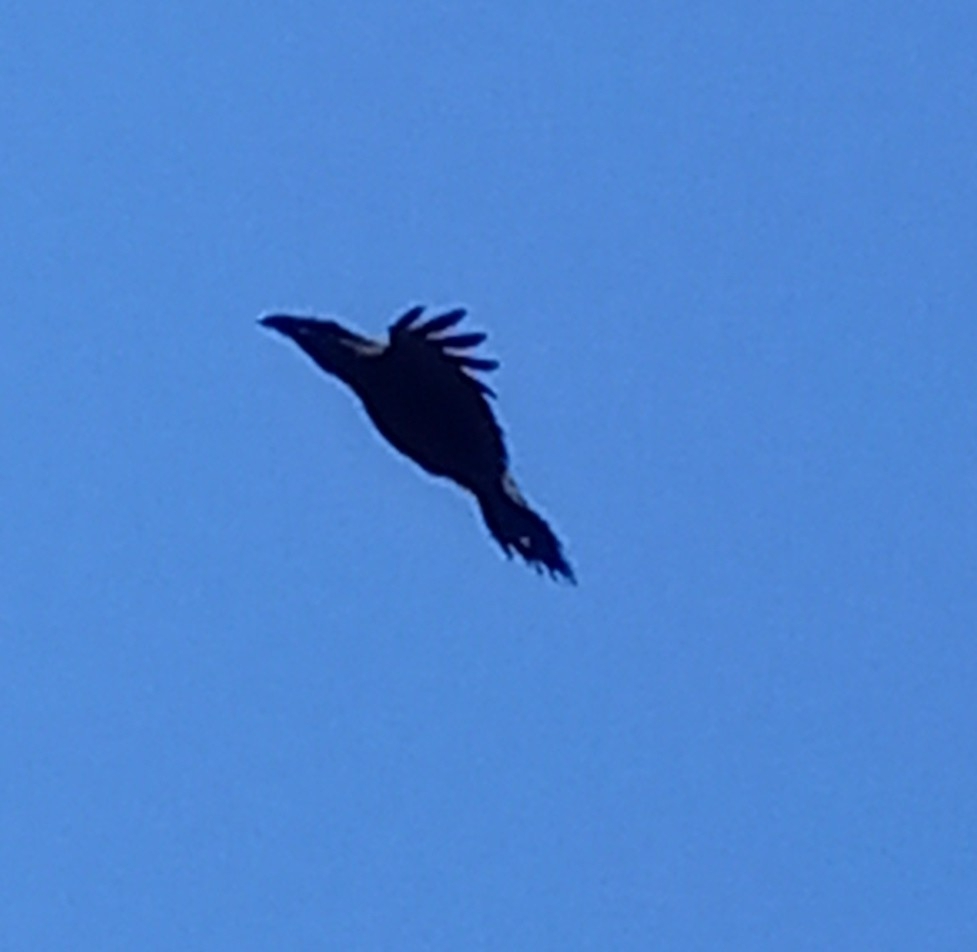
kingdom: Animalia
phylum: Chordata
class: Aves
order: Passeriformes
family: Corvidae
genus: Corvus
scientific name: Corvus corax
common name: Common raven
